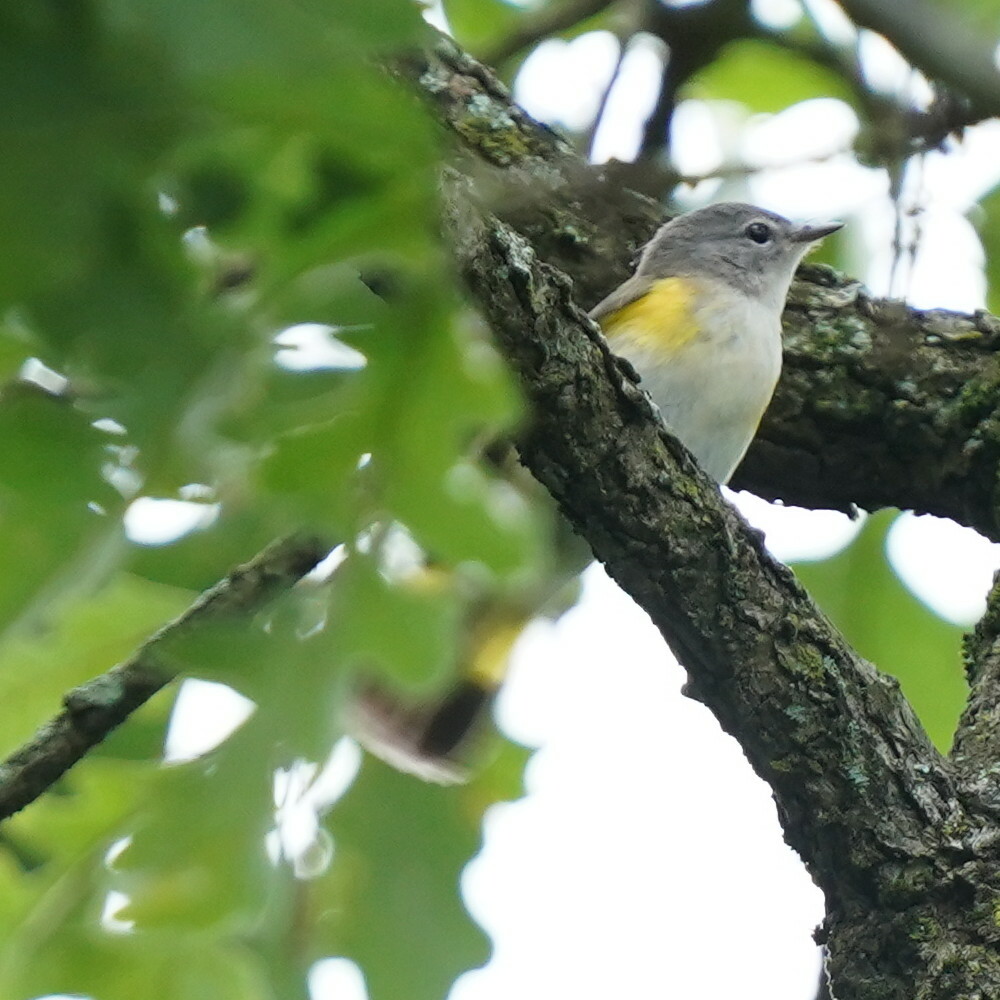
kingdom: Animalia
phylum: Chordata
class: Aves
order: Passeriformes
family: Parulidae
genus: Setophaga
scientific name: Setophaga ruticilla
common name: American redstart
